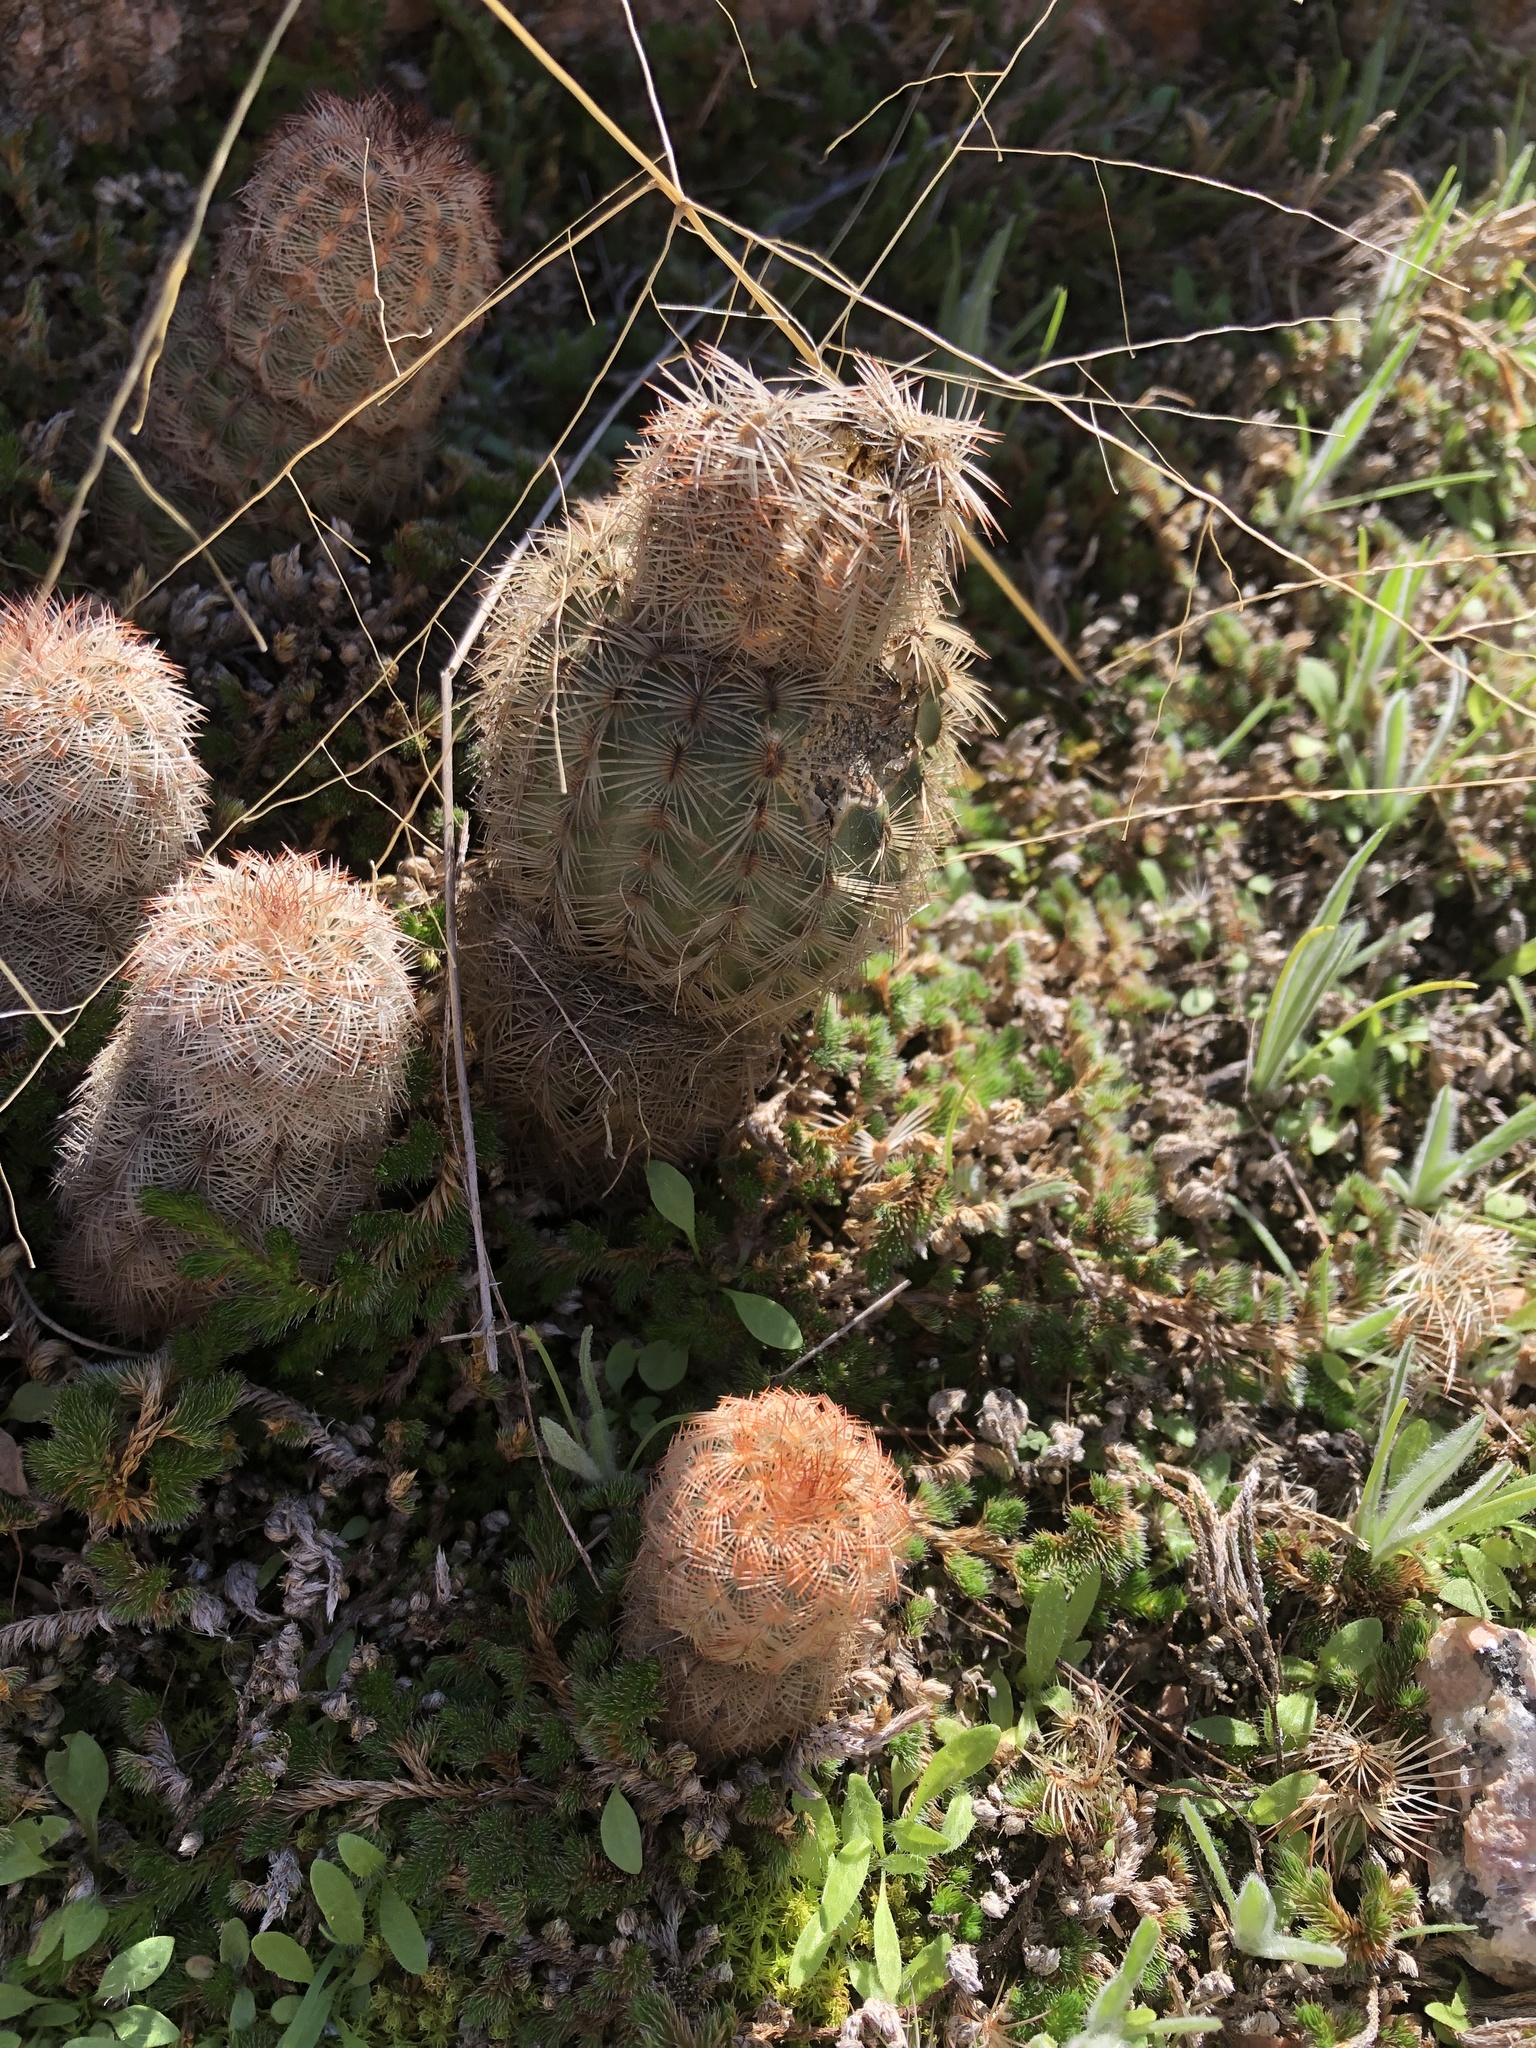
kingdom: Plantae
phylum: Tracheophyta
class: Magnoliopsida
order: Caryophyllales
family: Cactaceae
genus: Echinocereus
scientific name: Echinocereus reichenbachii
